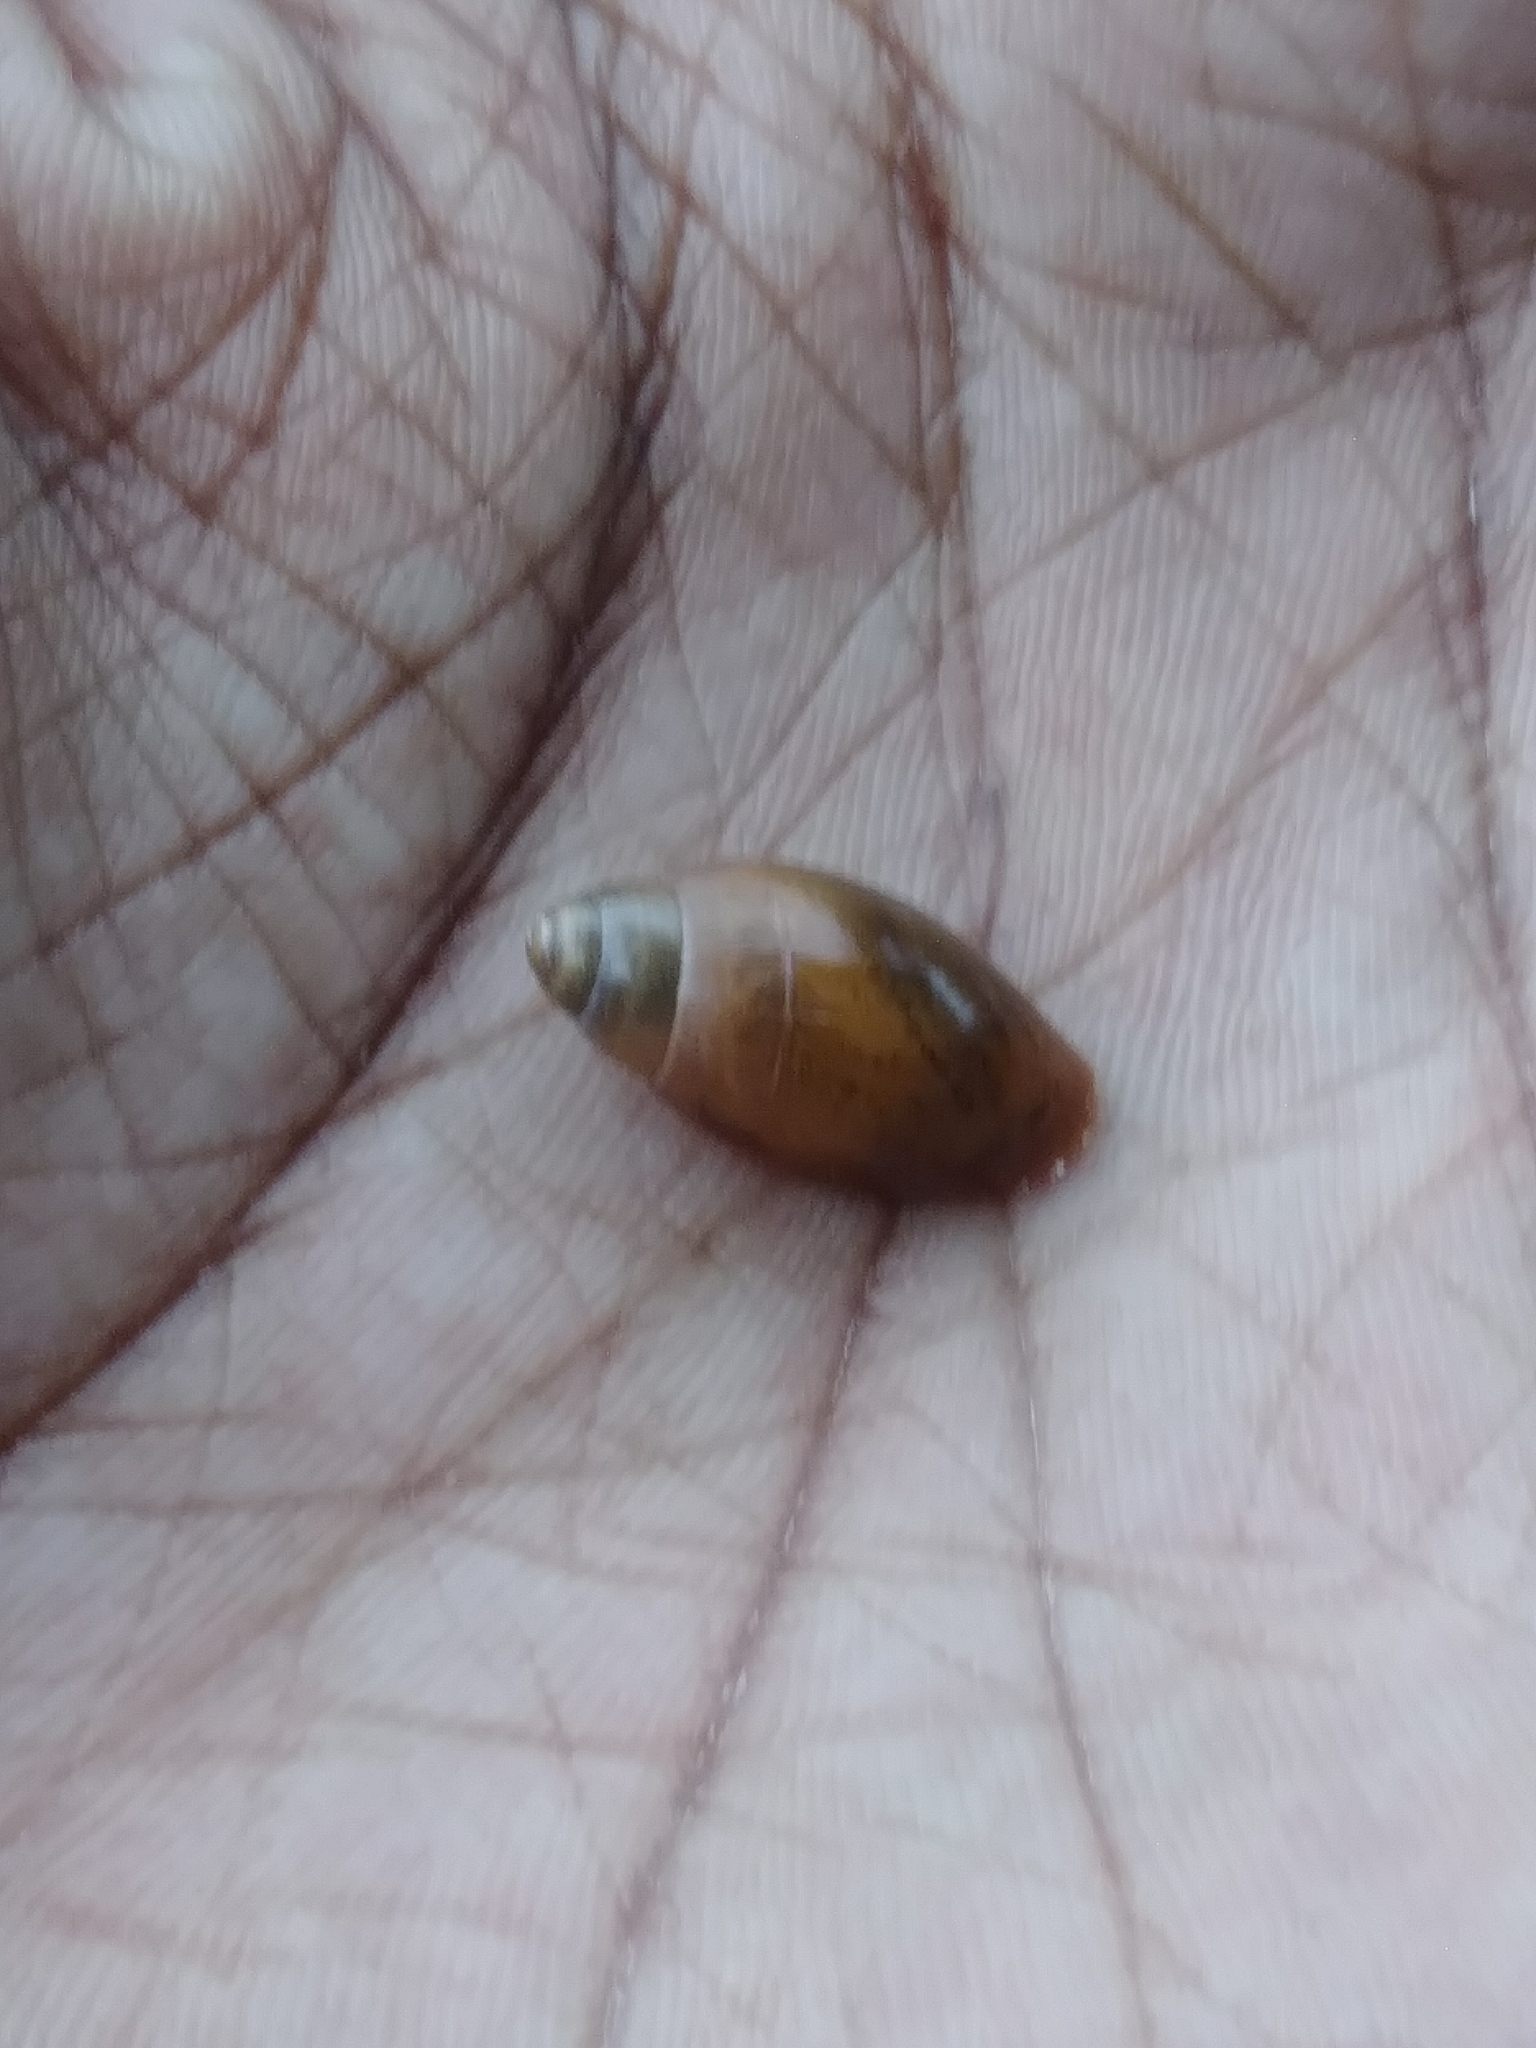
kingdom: Animalia
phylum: Mollusca
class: Gastropoda
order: Stylommatophora
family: Spiraxidae
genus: Euglandina
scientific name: Euglandina rosea
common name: Rosy wolfsnail
